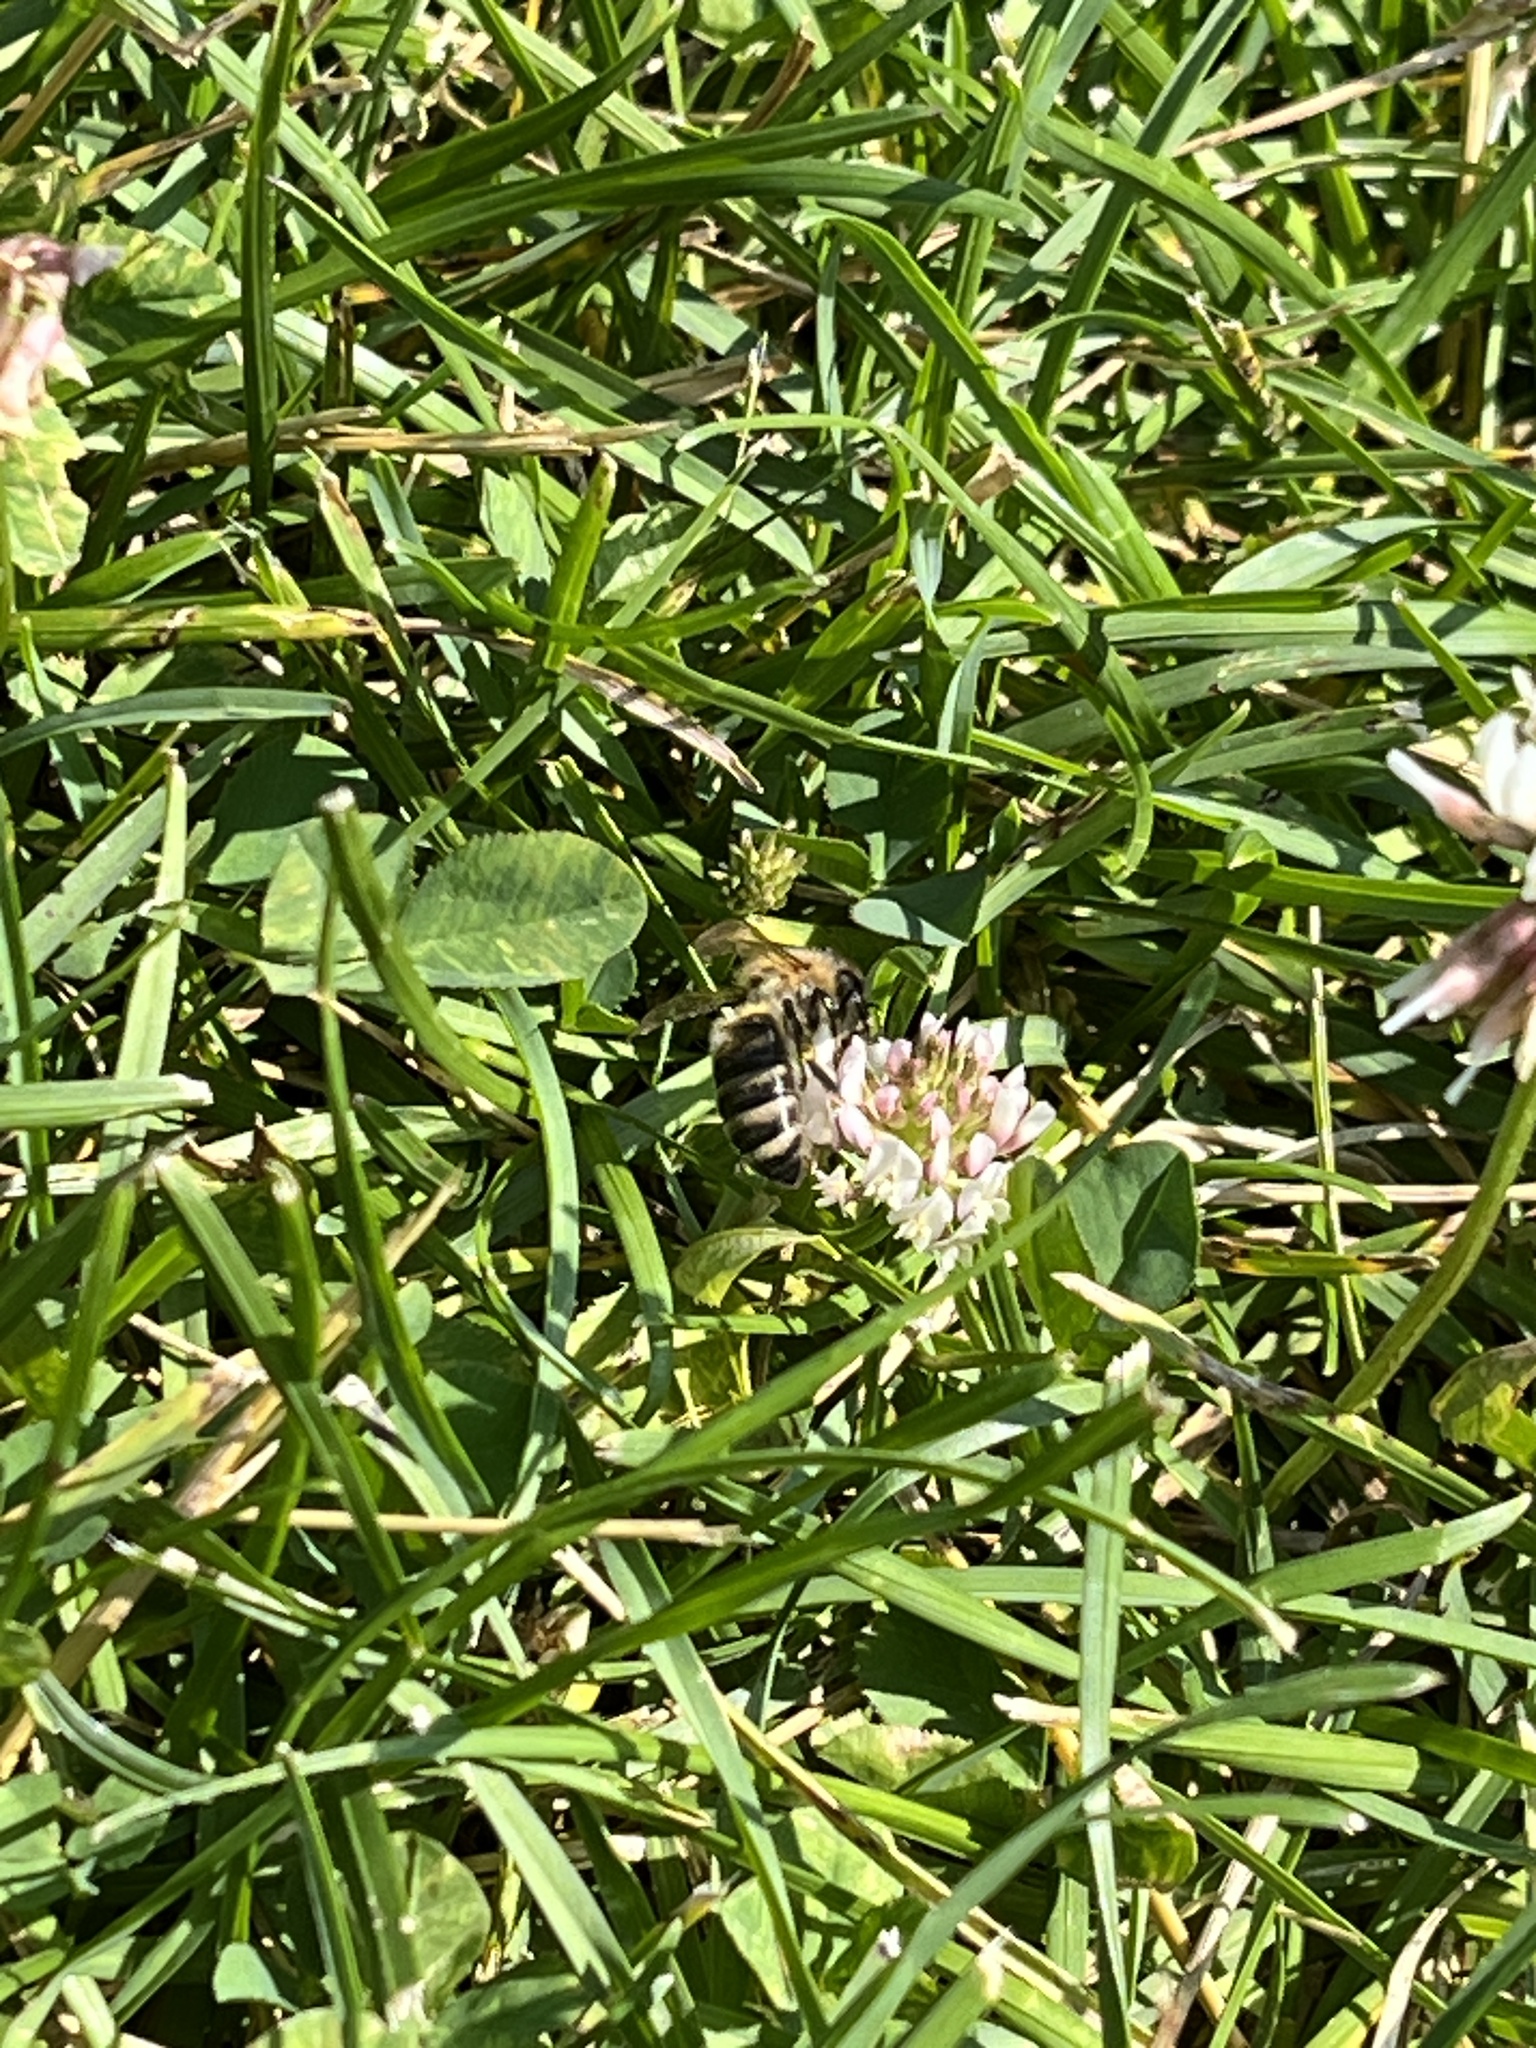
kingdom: Animalia
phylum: Arthropoda
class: Insecta
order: Hymenoptera
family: Apidae
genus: Apis
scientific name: Apis mellifera
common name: Honey bee
